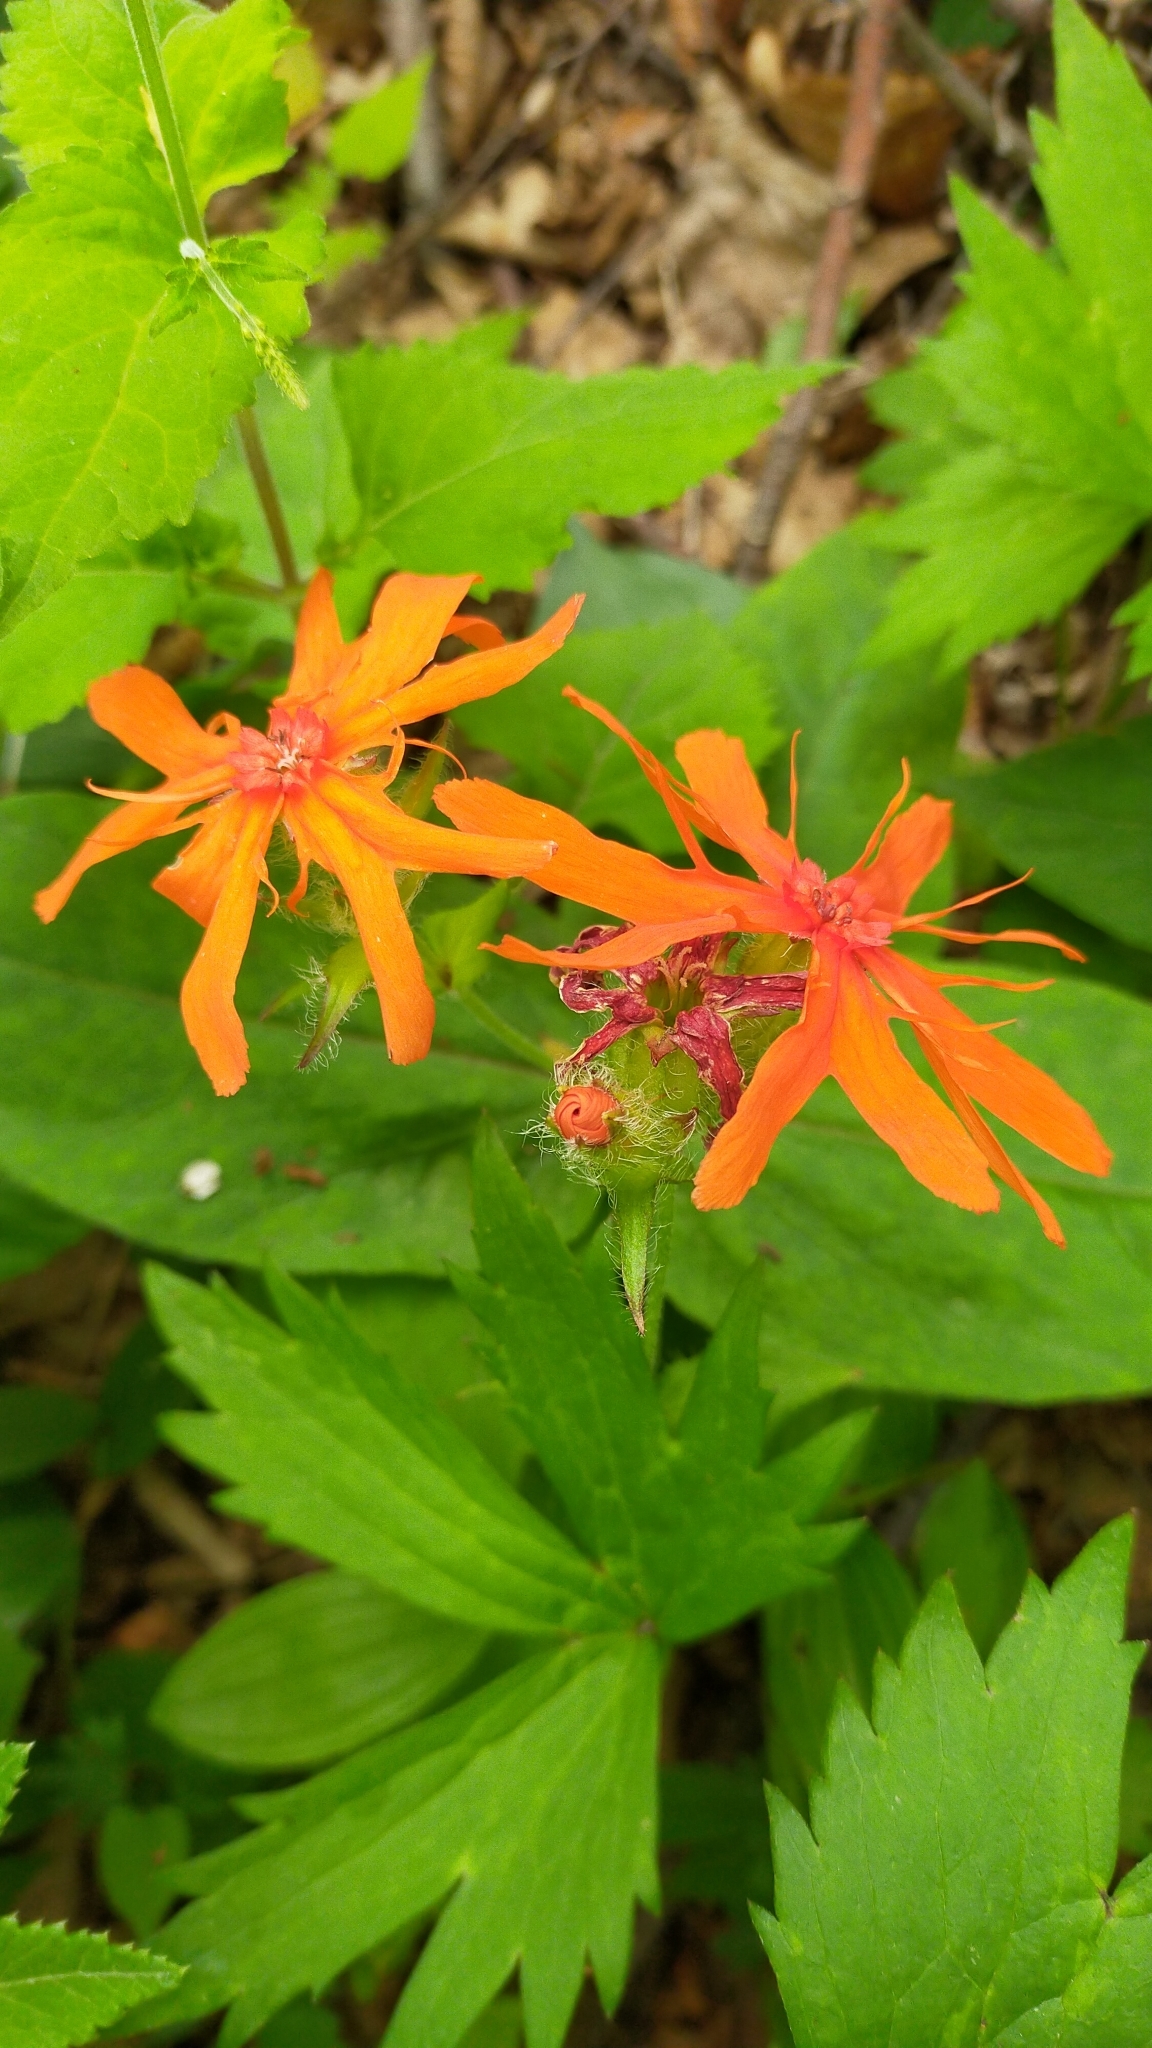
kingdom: Plantae
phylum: Tracheophyta
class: Magnoliopsida
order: Caryophyllales
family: Caryophyllaceae
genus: Silene
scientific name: Silene banksia
